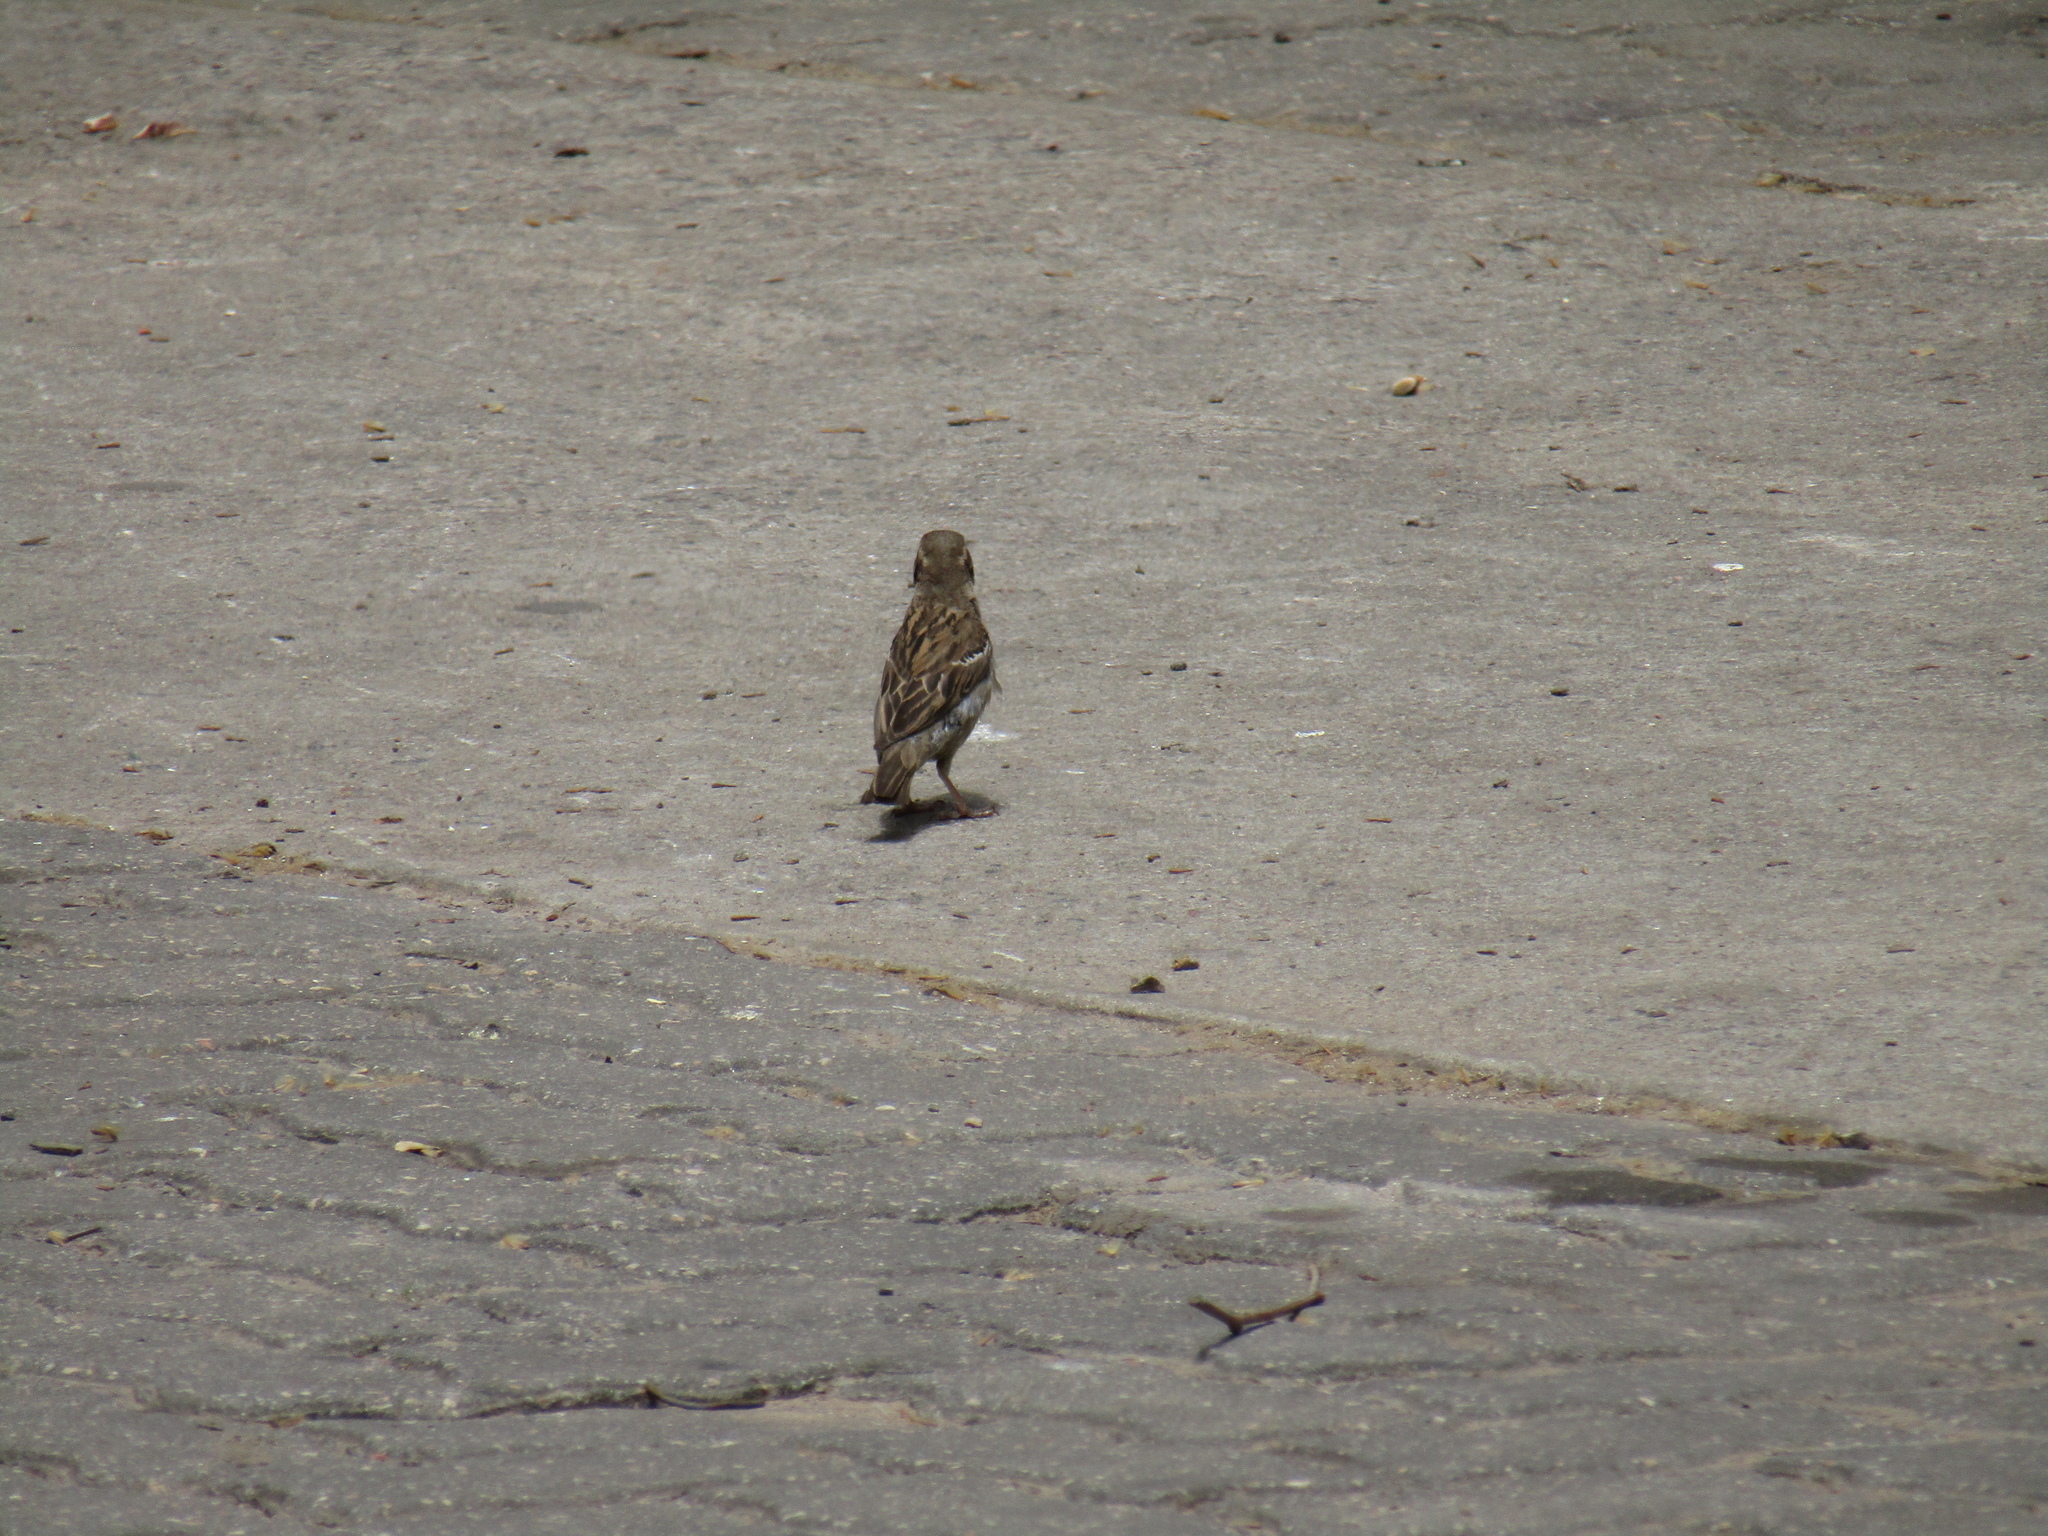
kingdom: Animalia
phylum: Chordata
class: Aves
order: Passeriformes
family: Passeridae
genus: Passer
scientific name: Passer domesticus
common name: House sparrow
